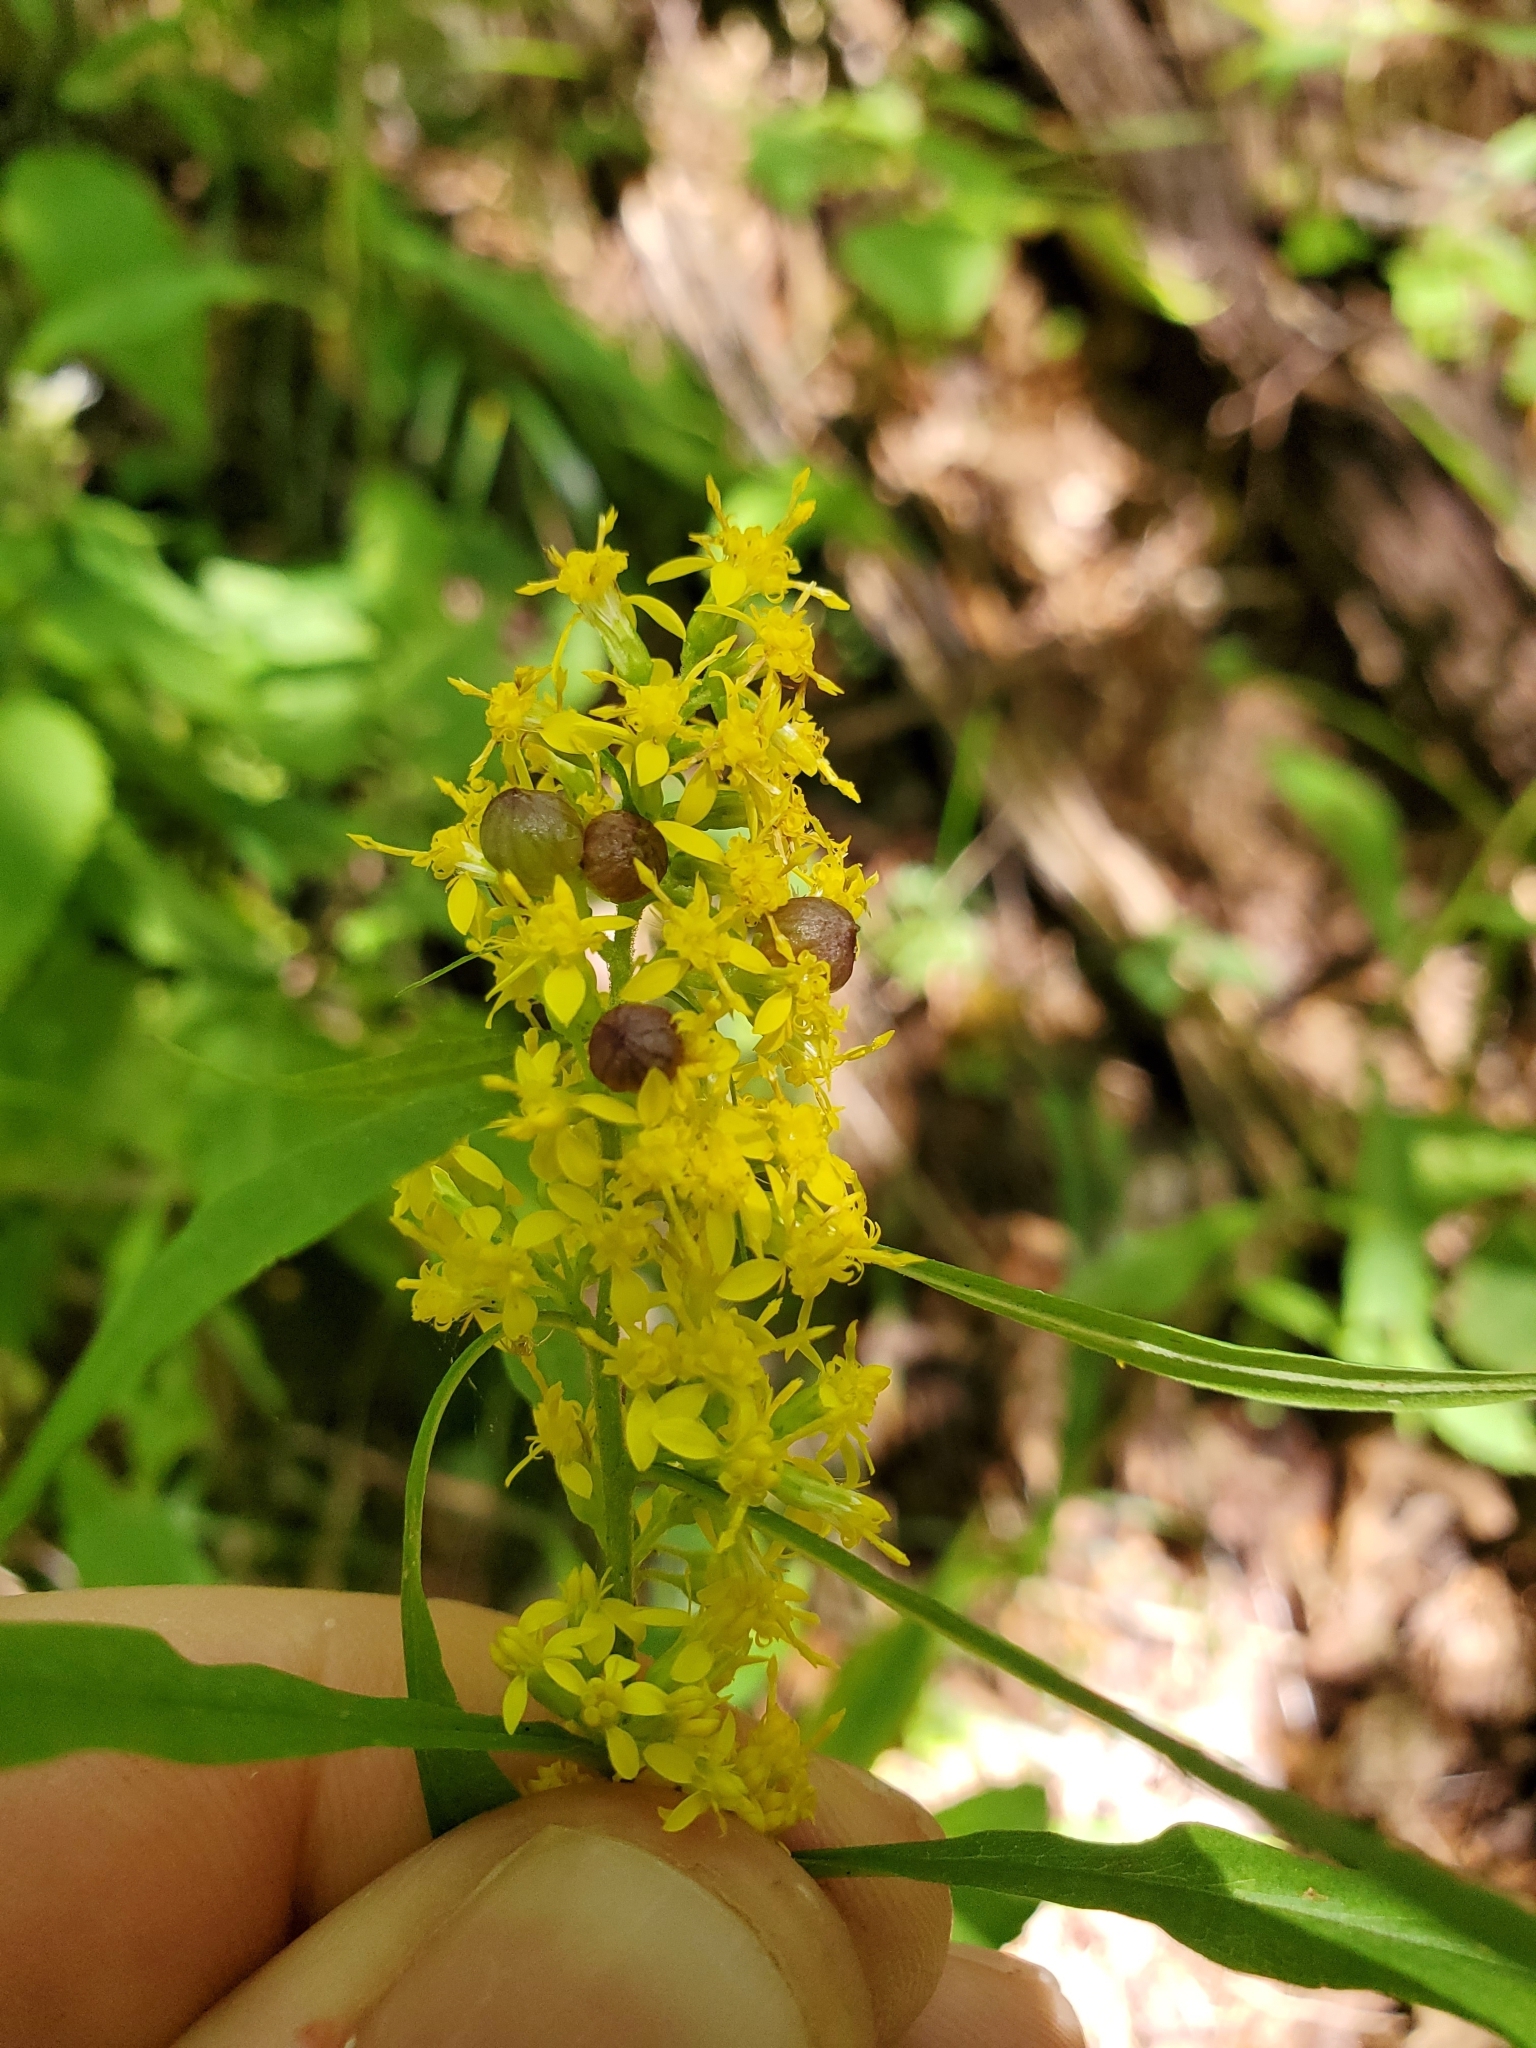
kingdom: Animalia
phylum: Arthropoda
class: Insecta
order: Diptera
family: Cecidomyiidae
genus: Schizomyia
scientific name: Schizomyia racemicola
